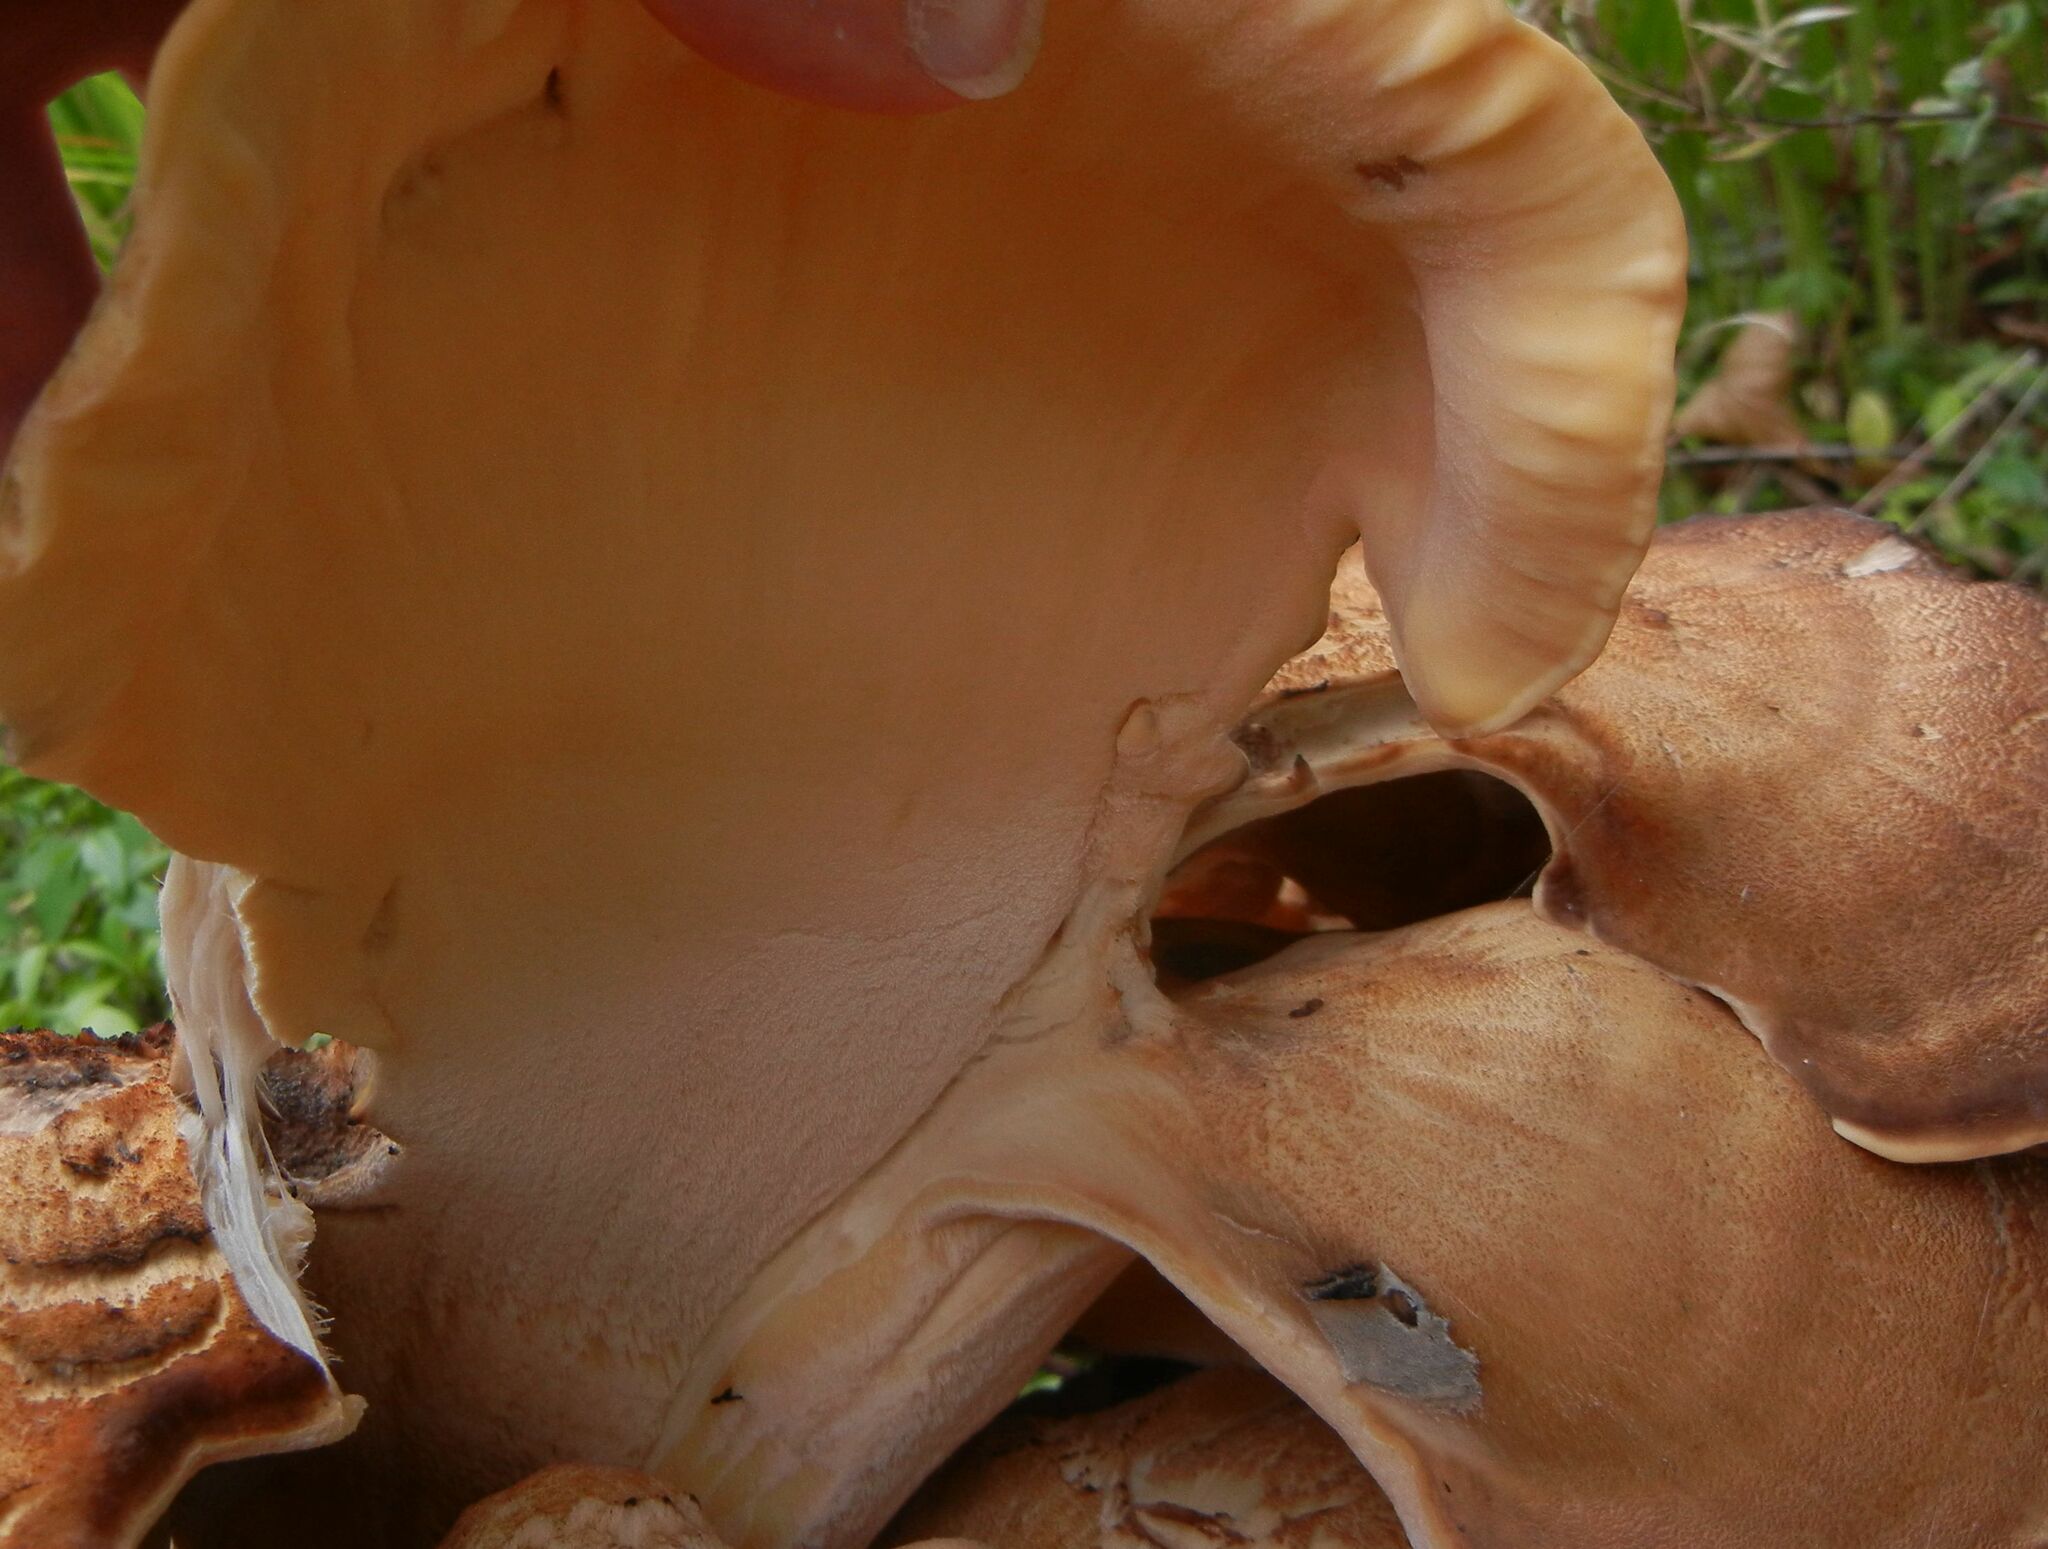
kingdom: Fungi
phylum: Basidiomycota
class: Agaricomycetes
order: Polyporales
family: Meripilaceae
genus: Meripilus
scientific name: Meripilus giganteus
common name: Giant polypore
